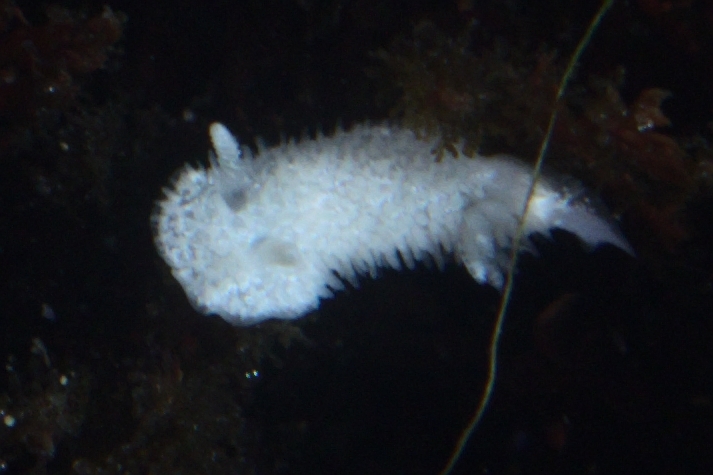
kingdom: Animalia
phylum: Mollusca
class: Gastropoda
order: Nudibranchia
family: Calycidorididae
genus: Diaphorodoris
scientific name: Diaphorodoris lirulatocauda
